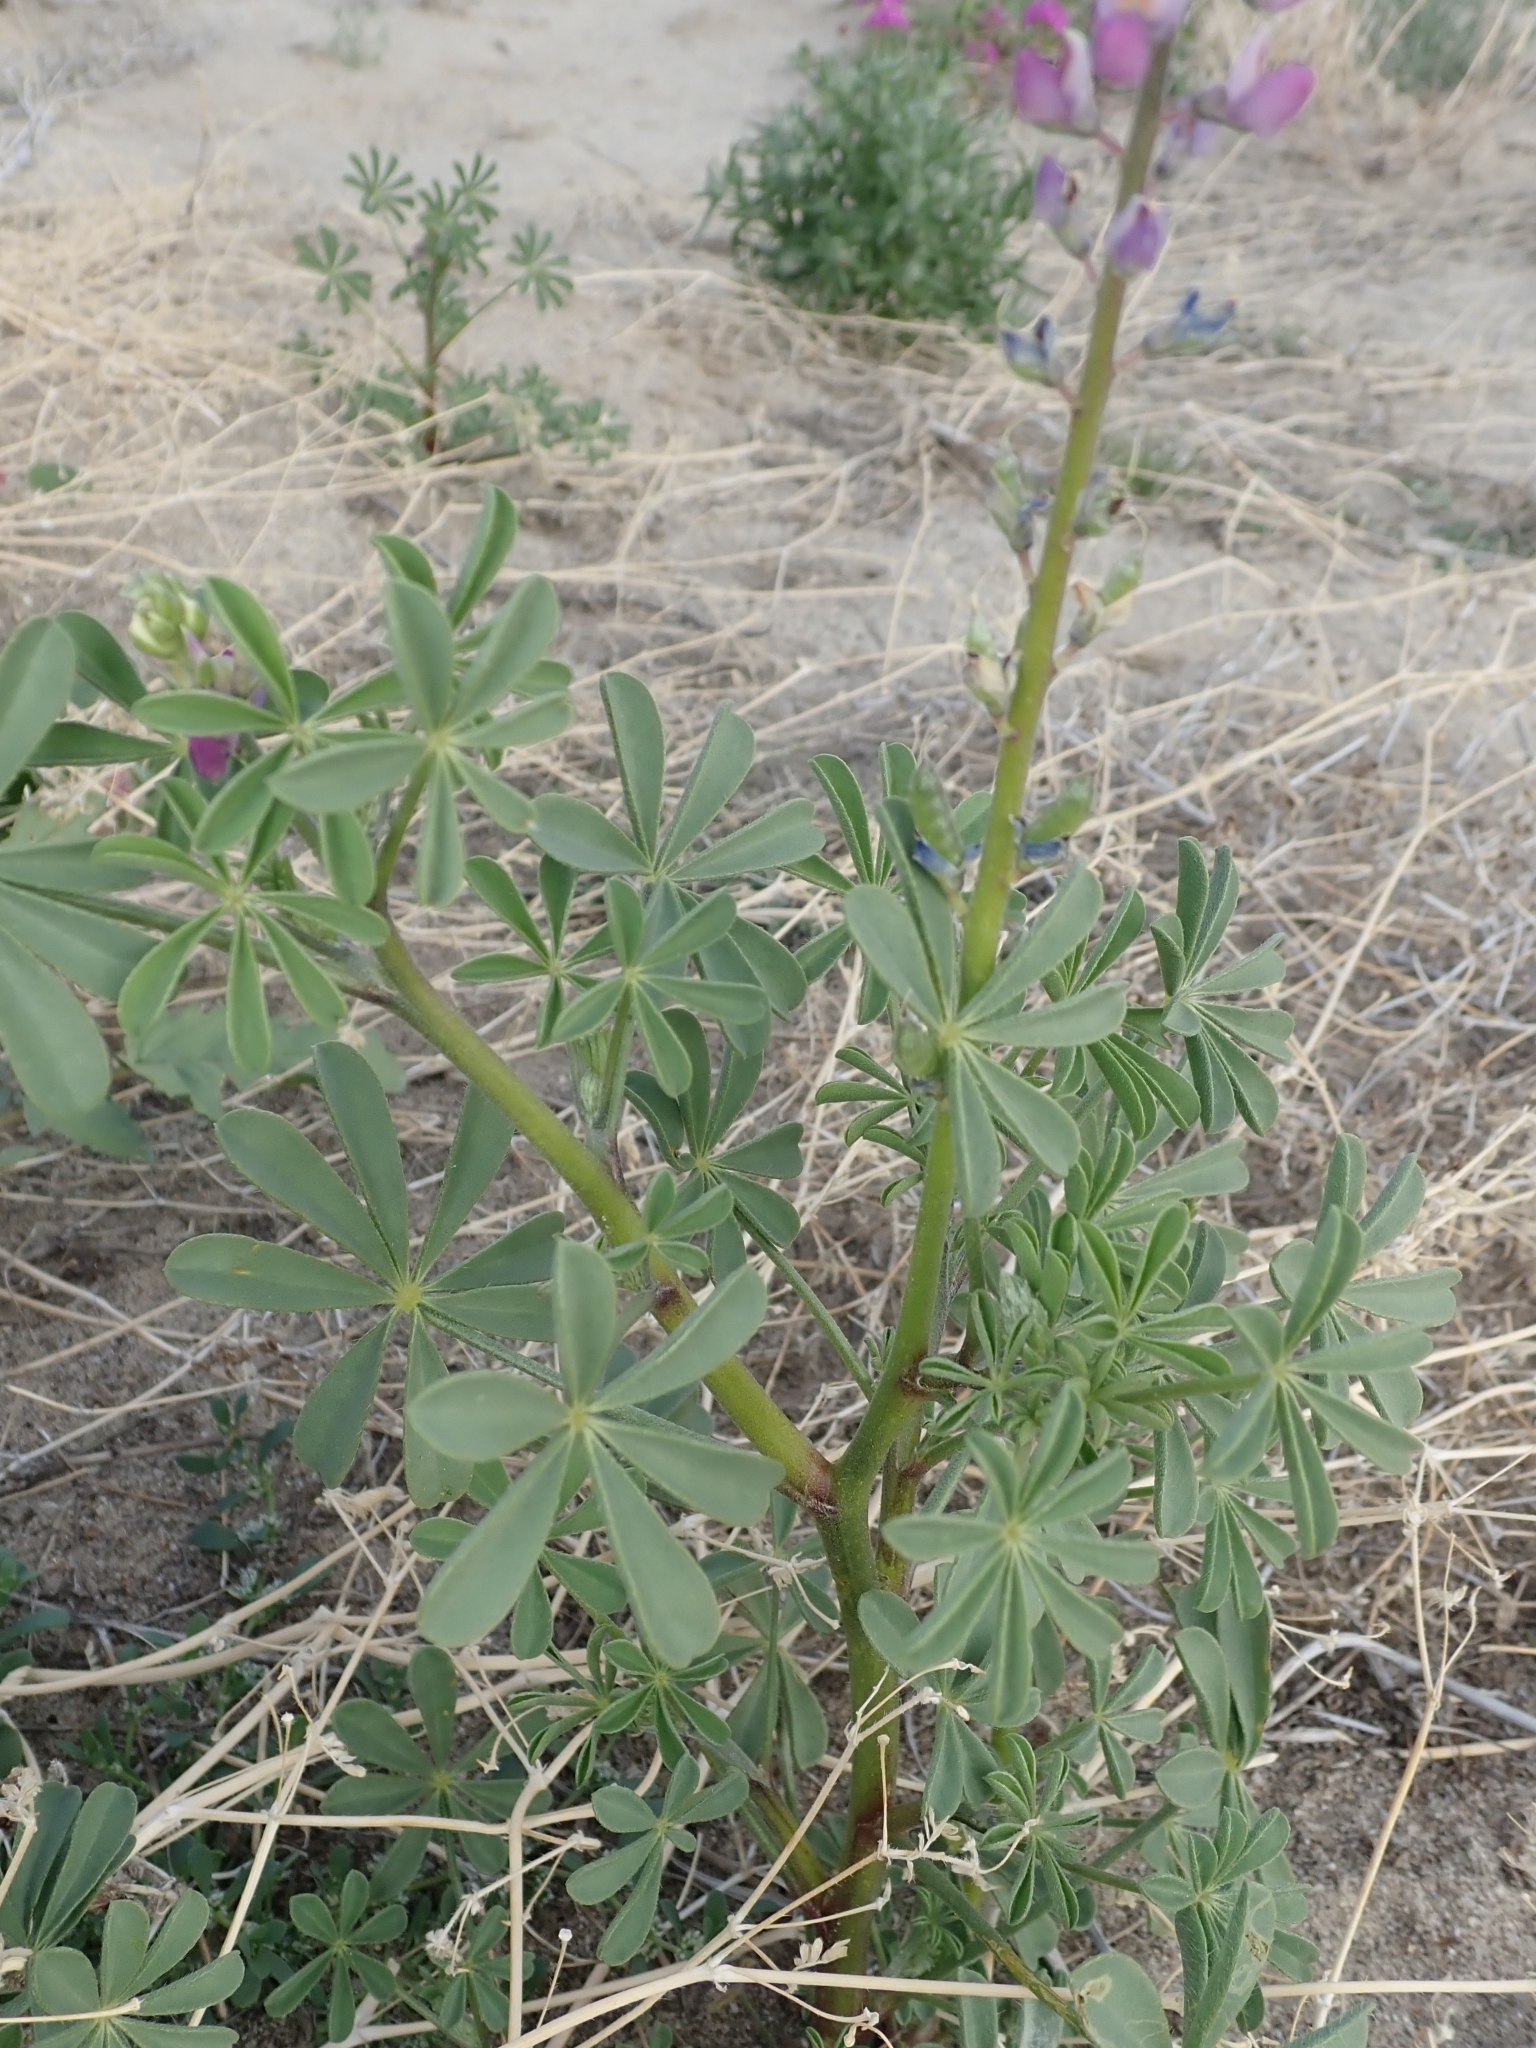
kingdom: Plantae
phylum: Tracheophyta
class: Magnoliopsida
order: Fabales
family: Fabaceae
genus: Lupinus
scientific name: Lupinus arizonicus
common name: Arizona lupine
